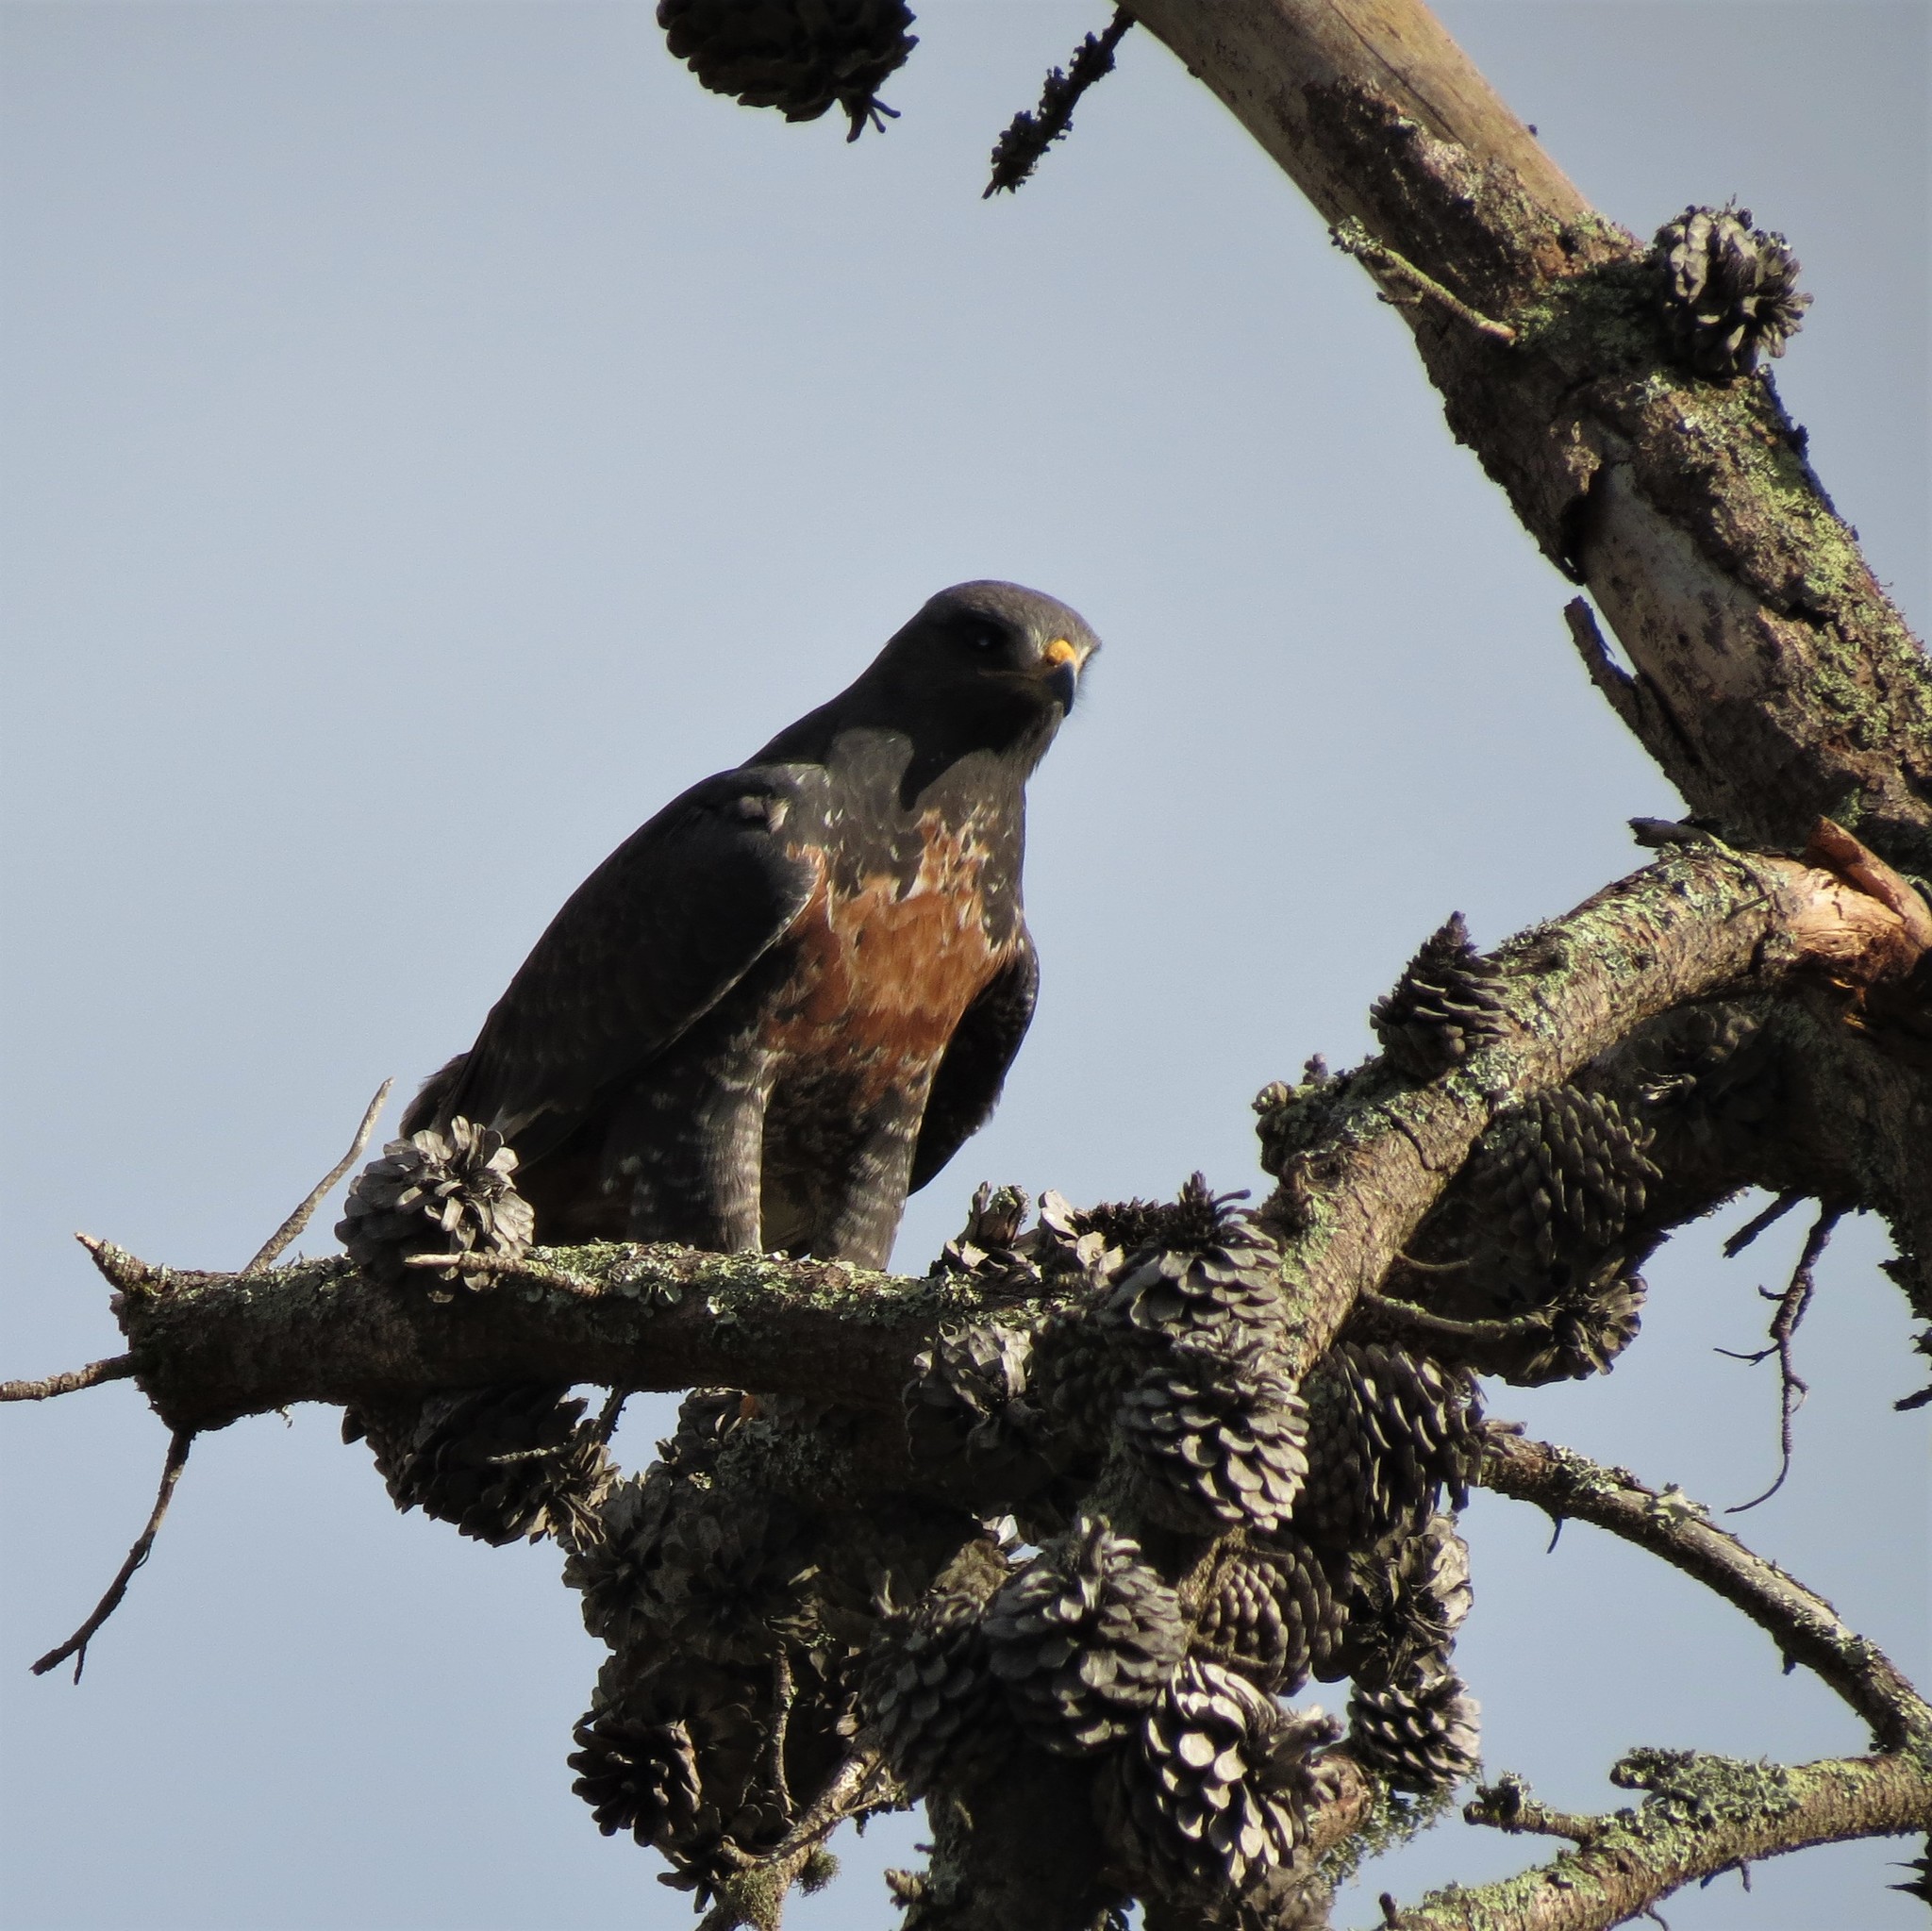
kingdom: Animalia
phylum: Chordata
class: Aves
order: Accipitriformes
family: Accipitridae
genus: Buteo
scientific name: Buteo rufofuscus
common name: Jackal buzzard
